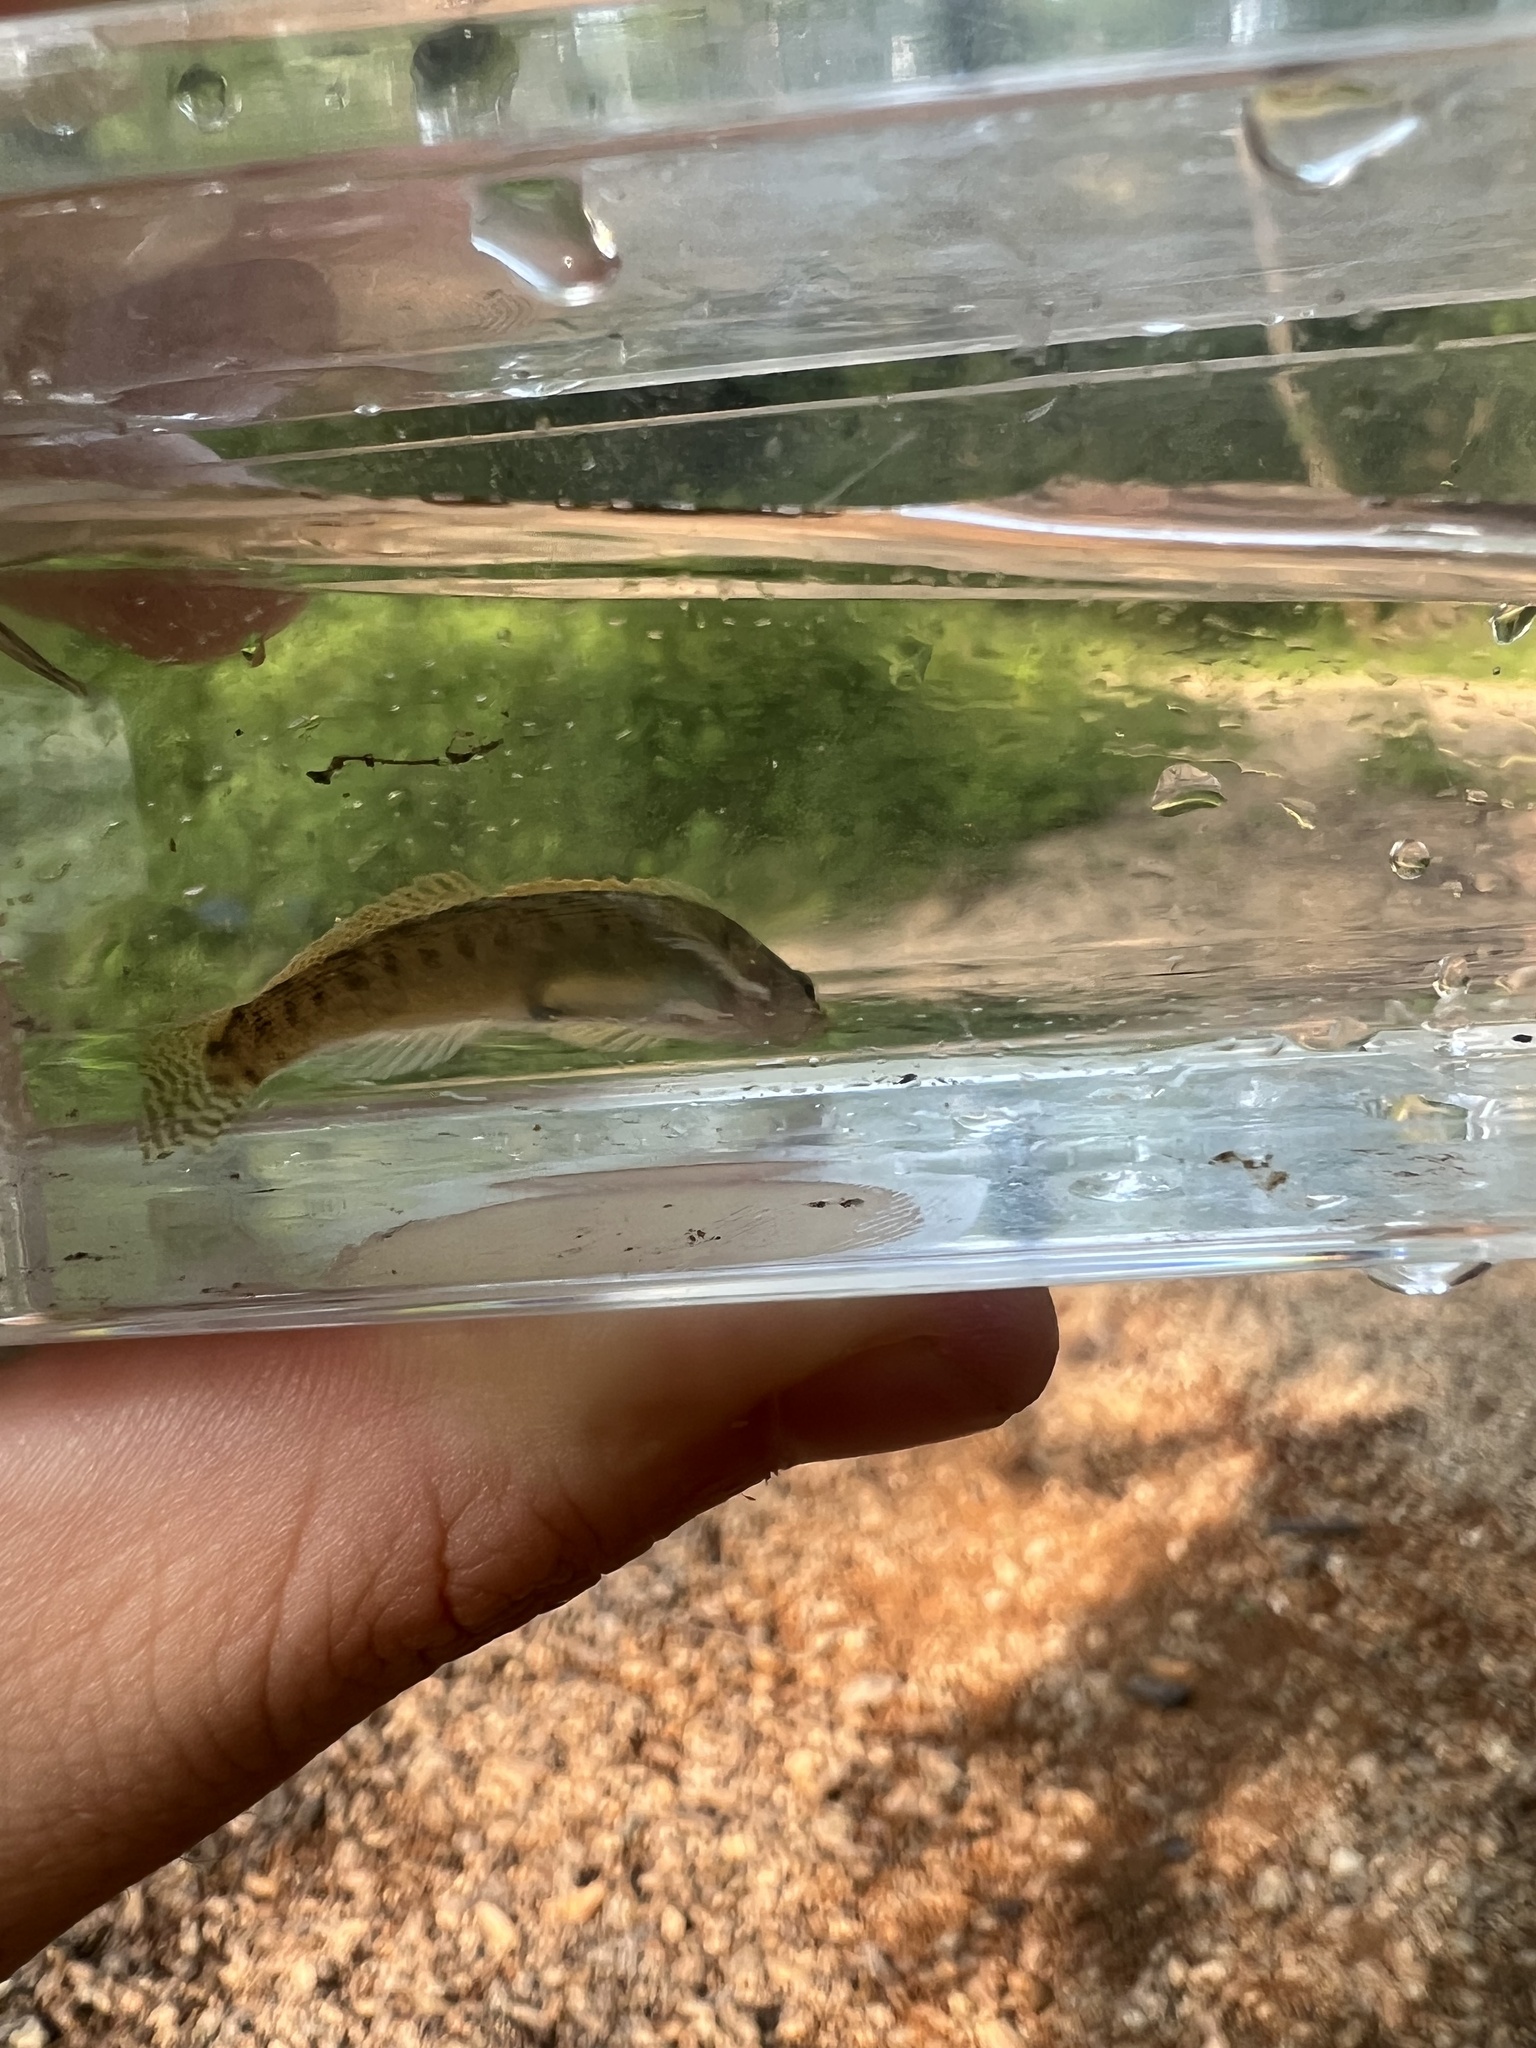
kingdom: Animalia
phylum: Chordata
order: Perciformes
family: Percidae
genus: Etheostoma
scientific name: Etheostoma flabellare
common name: Fantail darter
